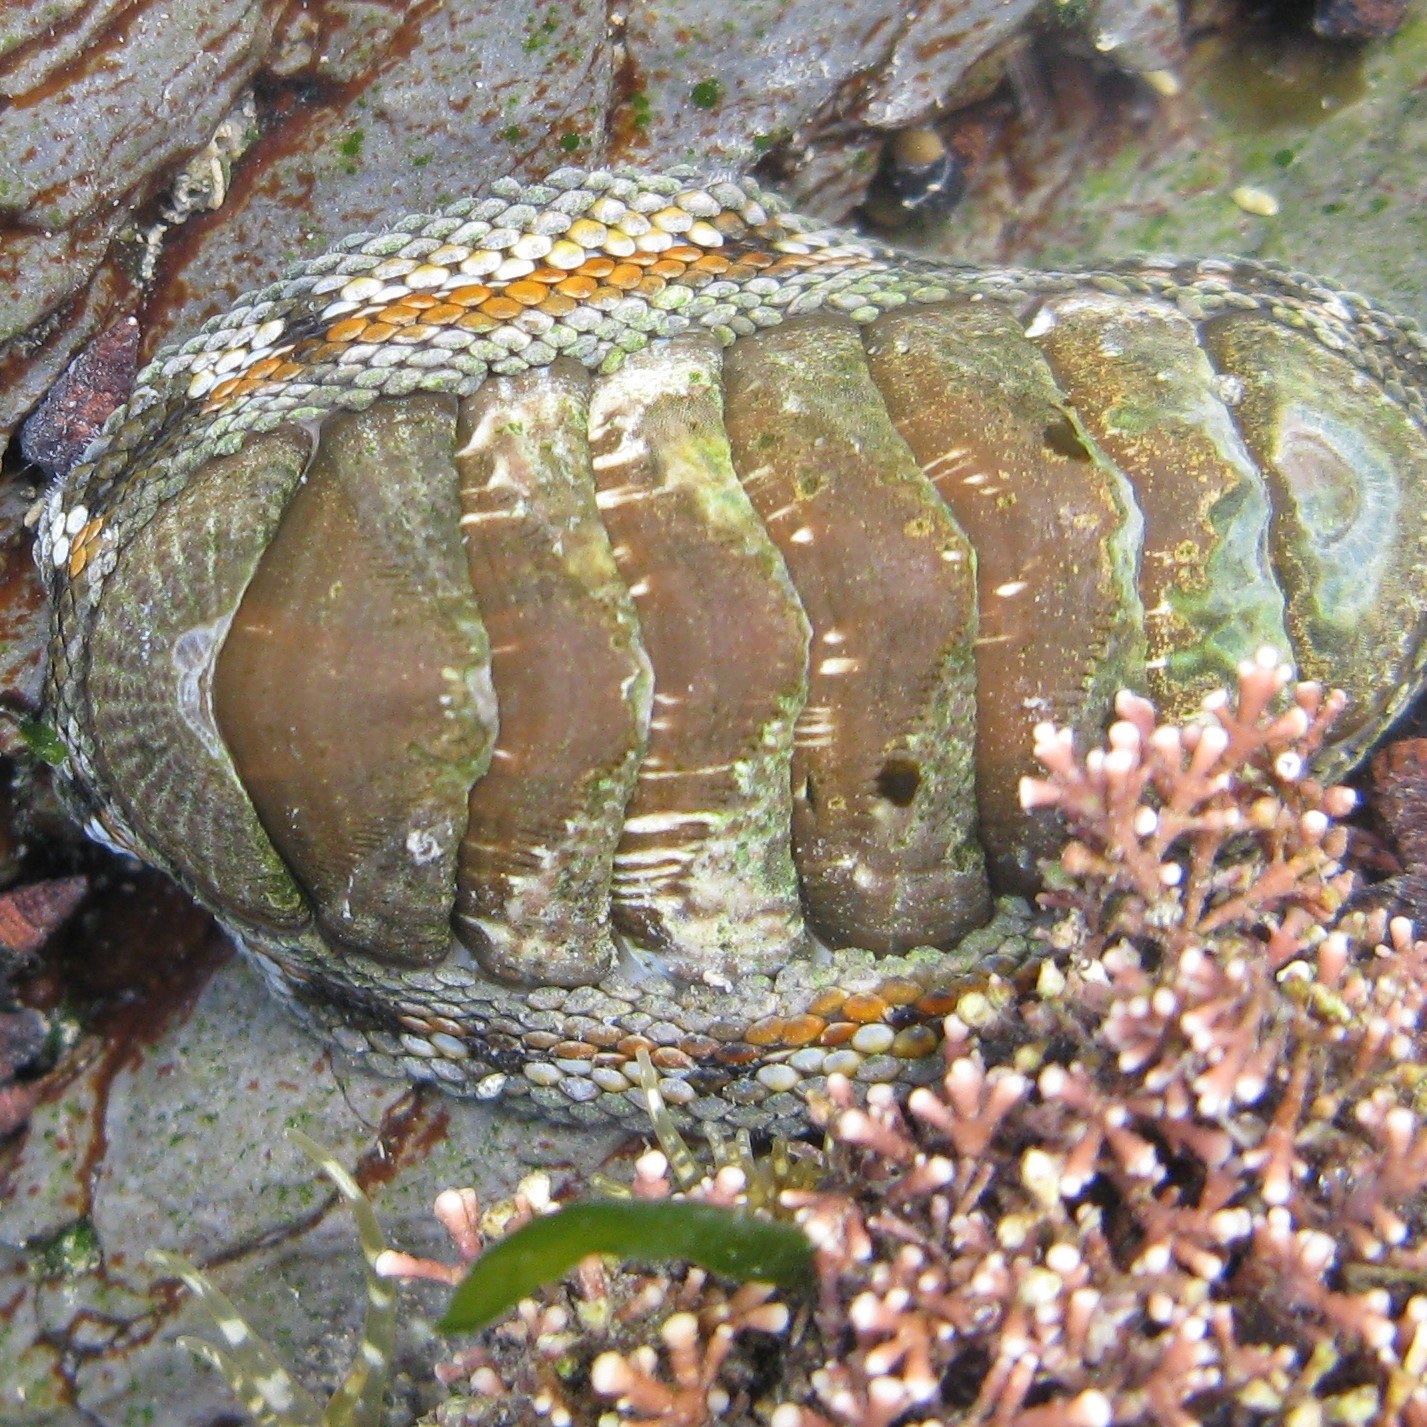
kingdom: Animalia
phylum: Mollusca
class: Polyplacophora
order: Chitonida
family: Chitonidae
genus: Sypharochiton
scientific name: Sypharochiton pelliserpentis
